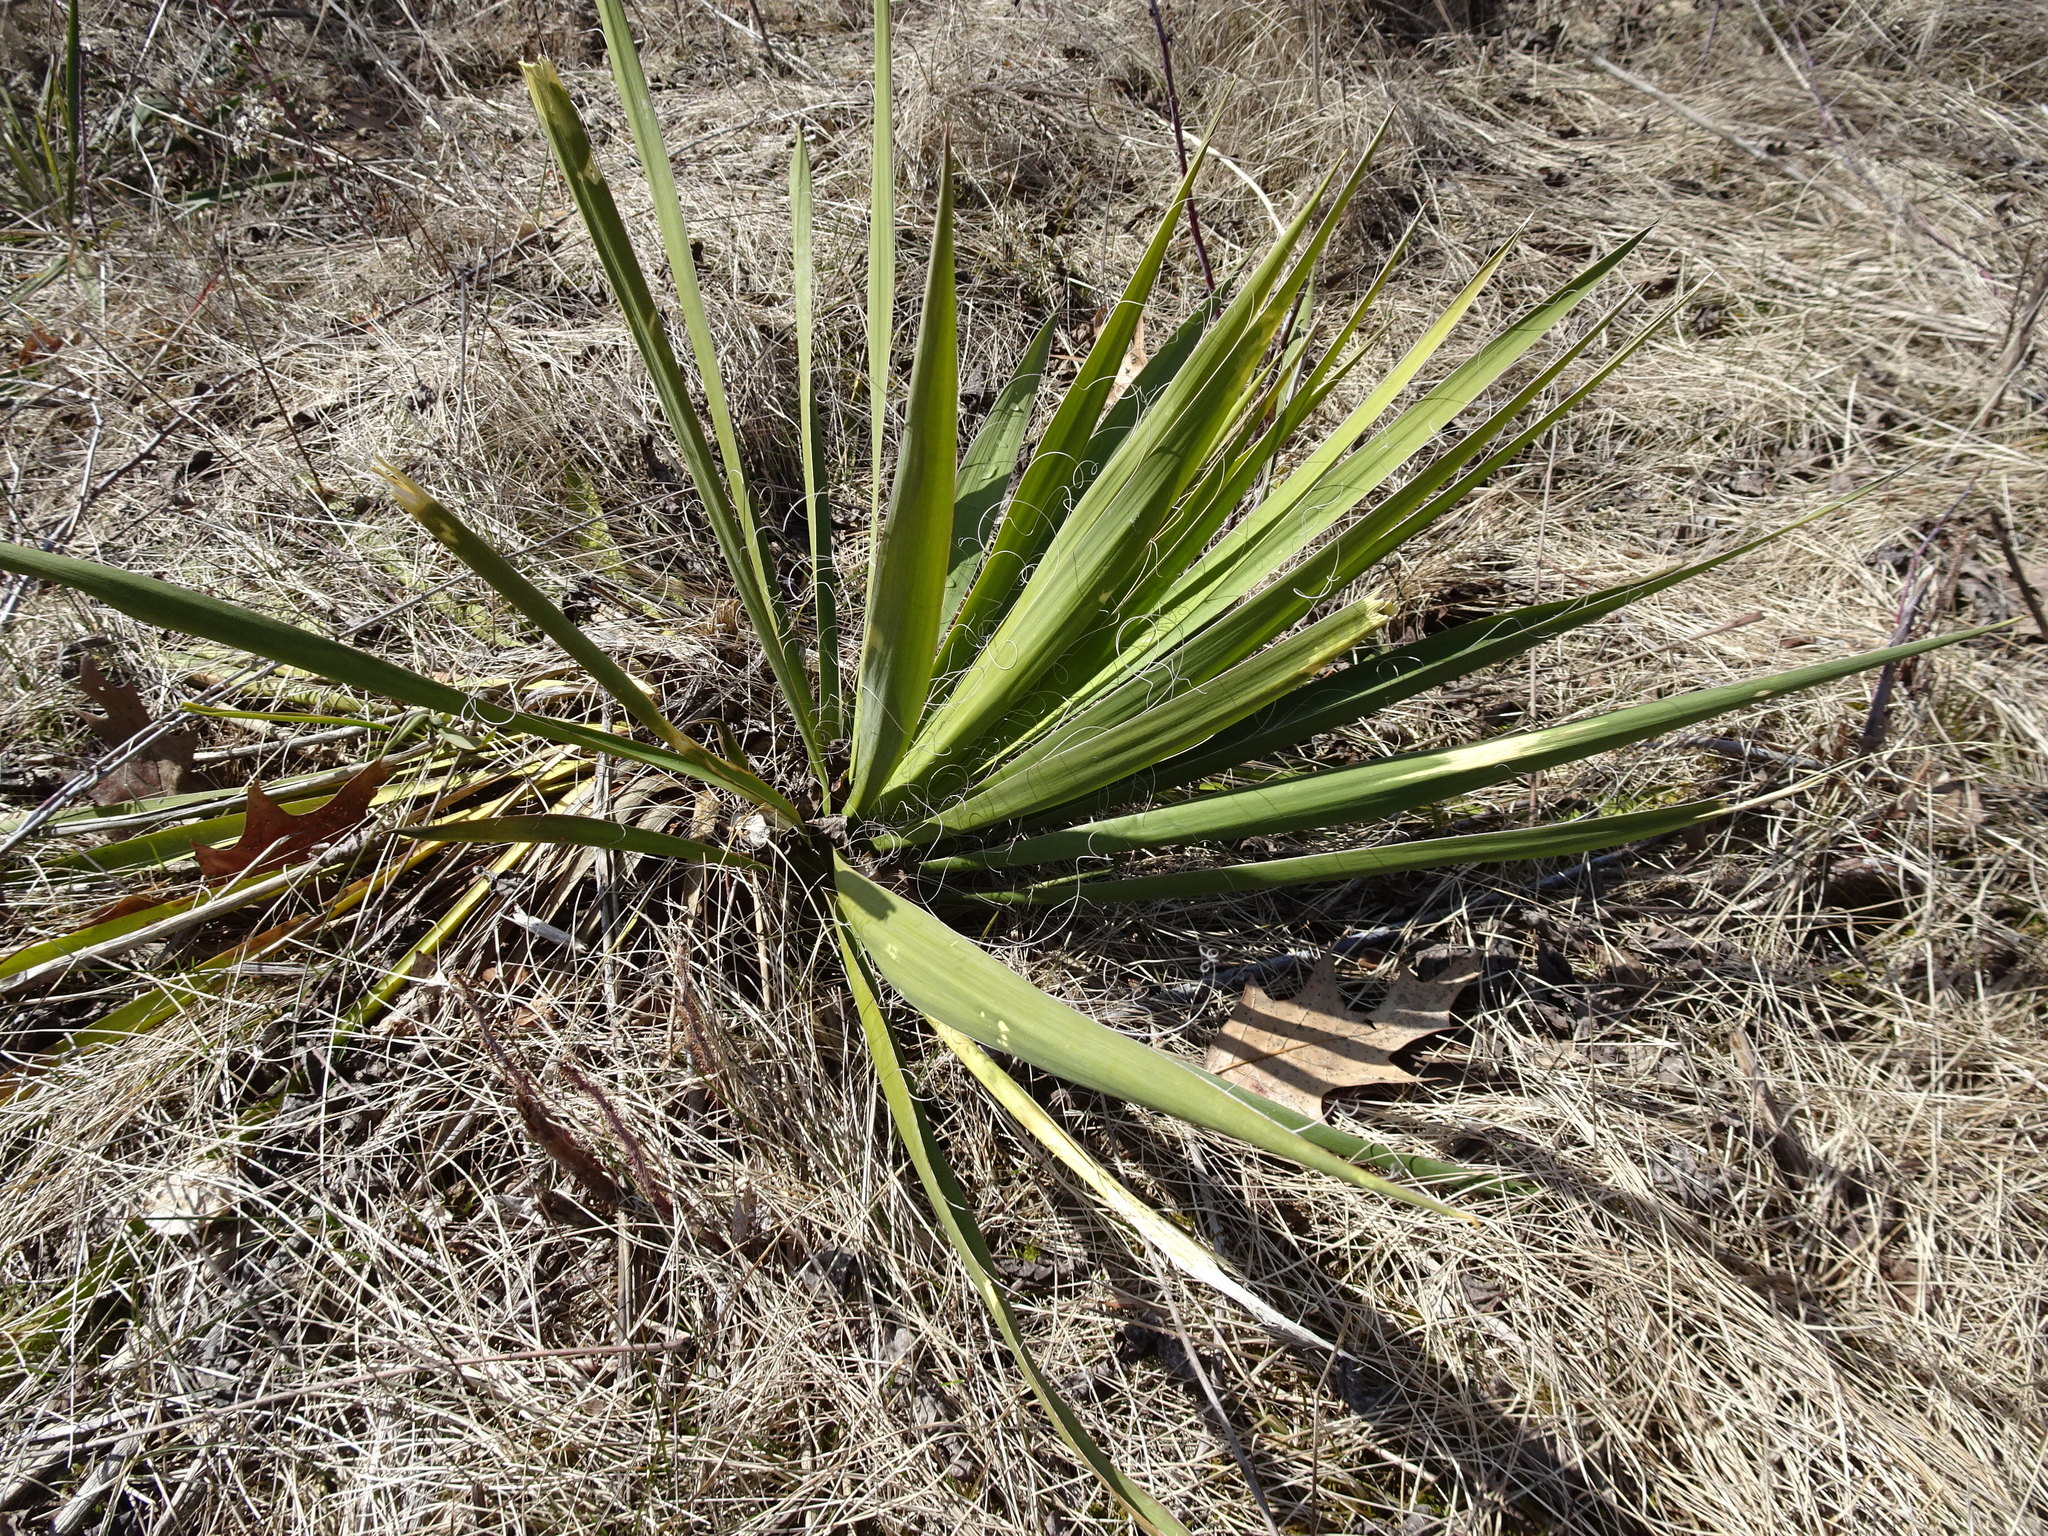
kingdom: Plantae
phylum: Tracheophyta
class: Liliopsida
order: Asparagales
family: Asparagaceae
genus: Yucca
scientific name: Yucca flaccida
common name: Adam's-needle
